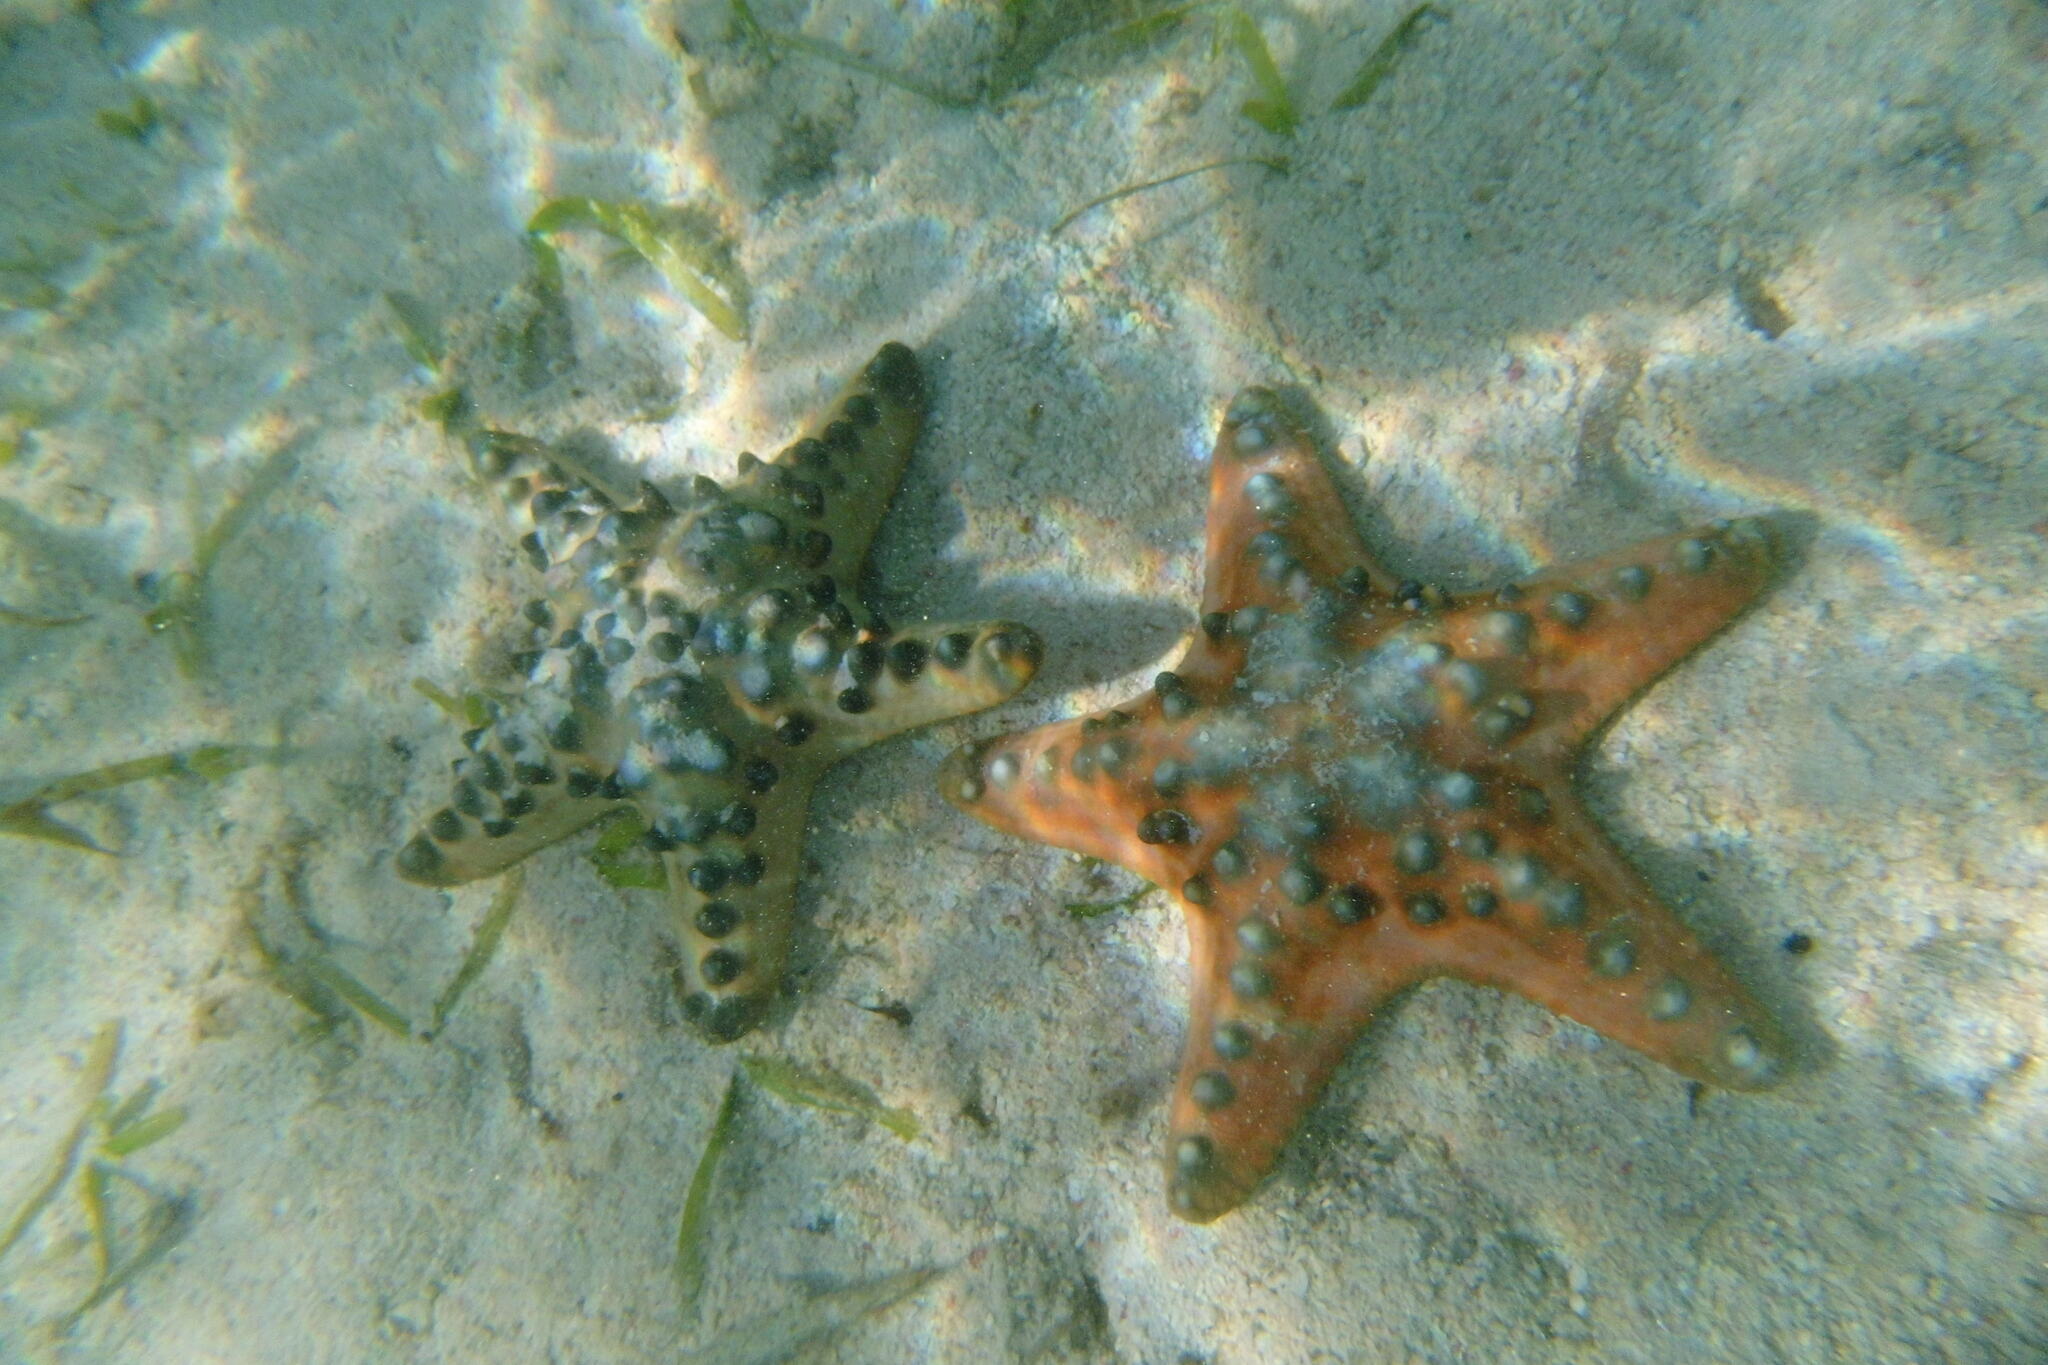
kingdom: Animalia
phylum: Echinodermata
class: Asteroidea
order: Valvatida
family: Oreasteridae
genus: Protoreaster
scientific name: Protoreaster nodosus
